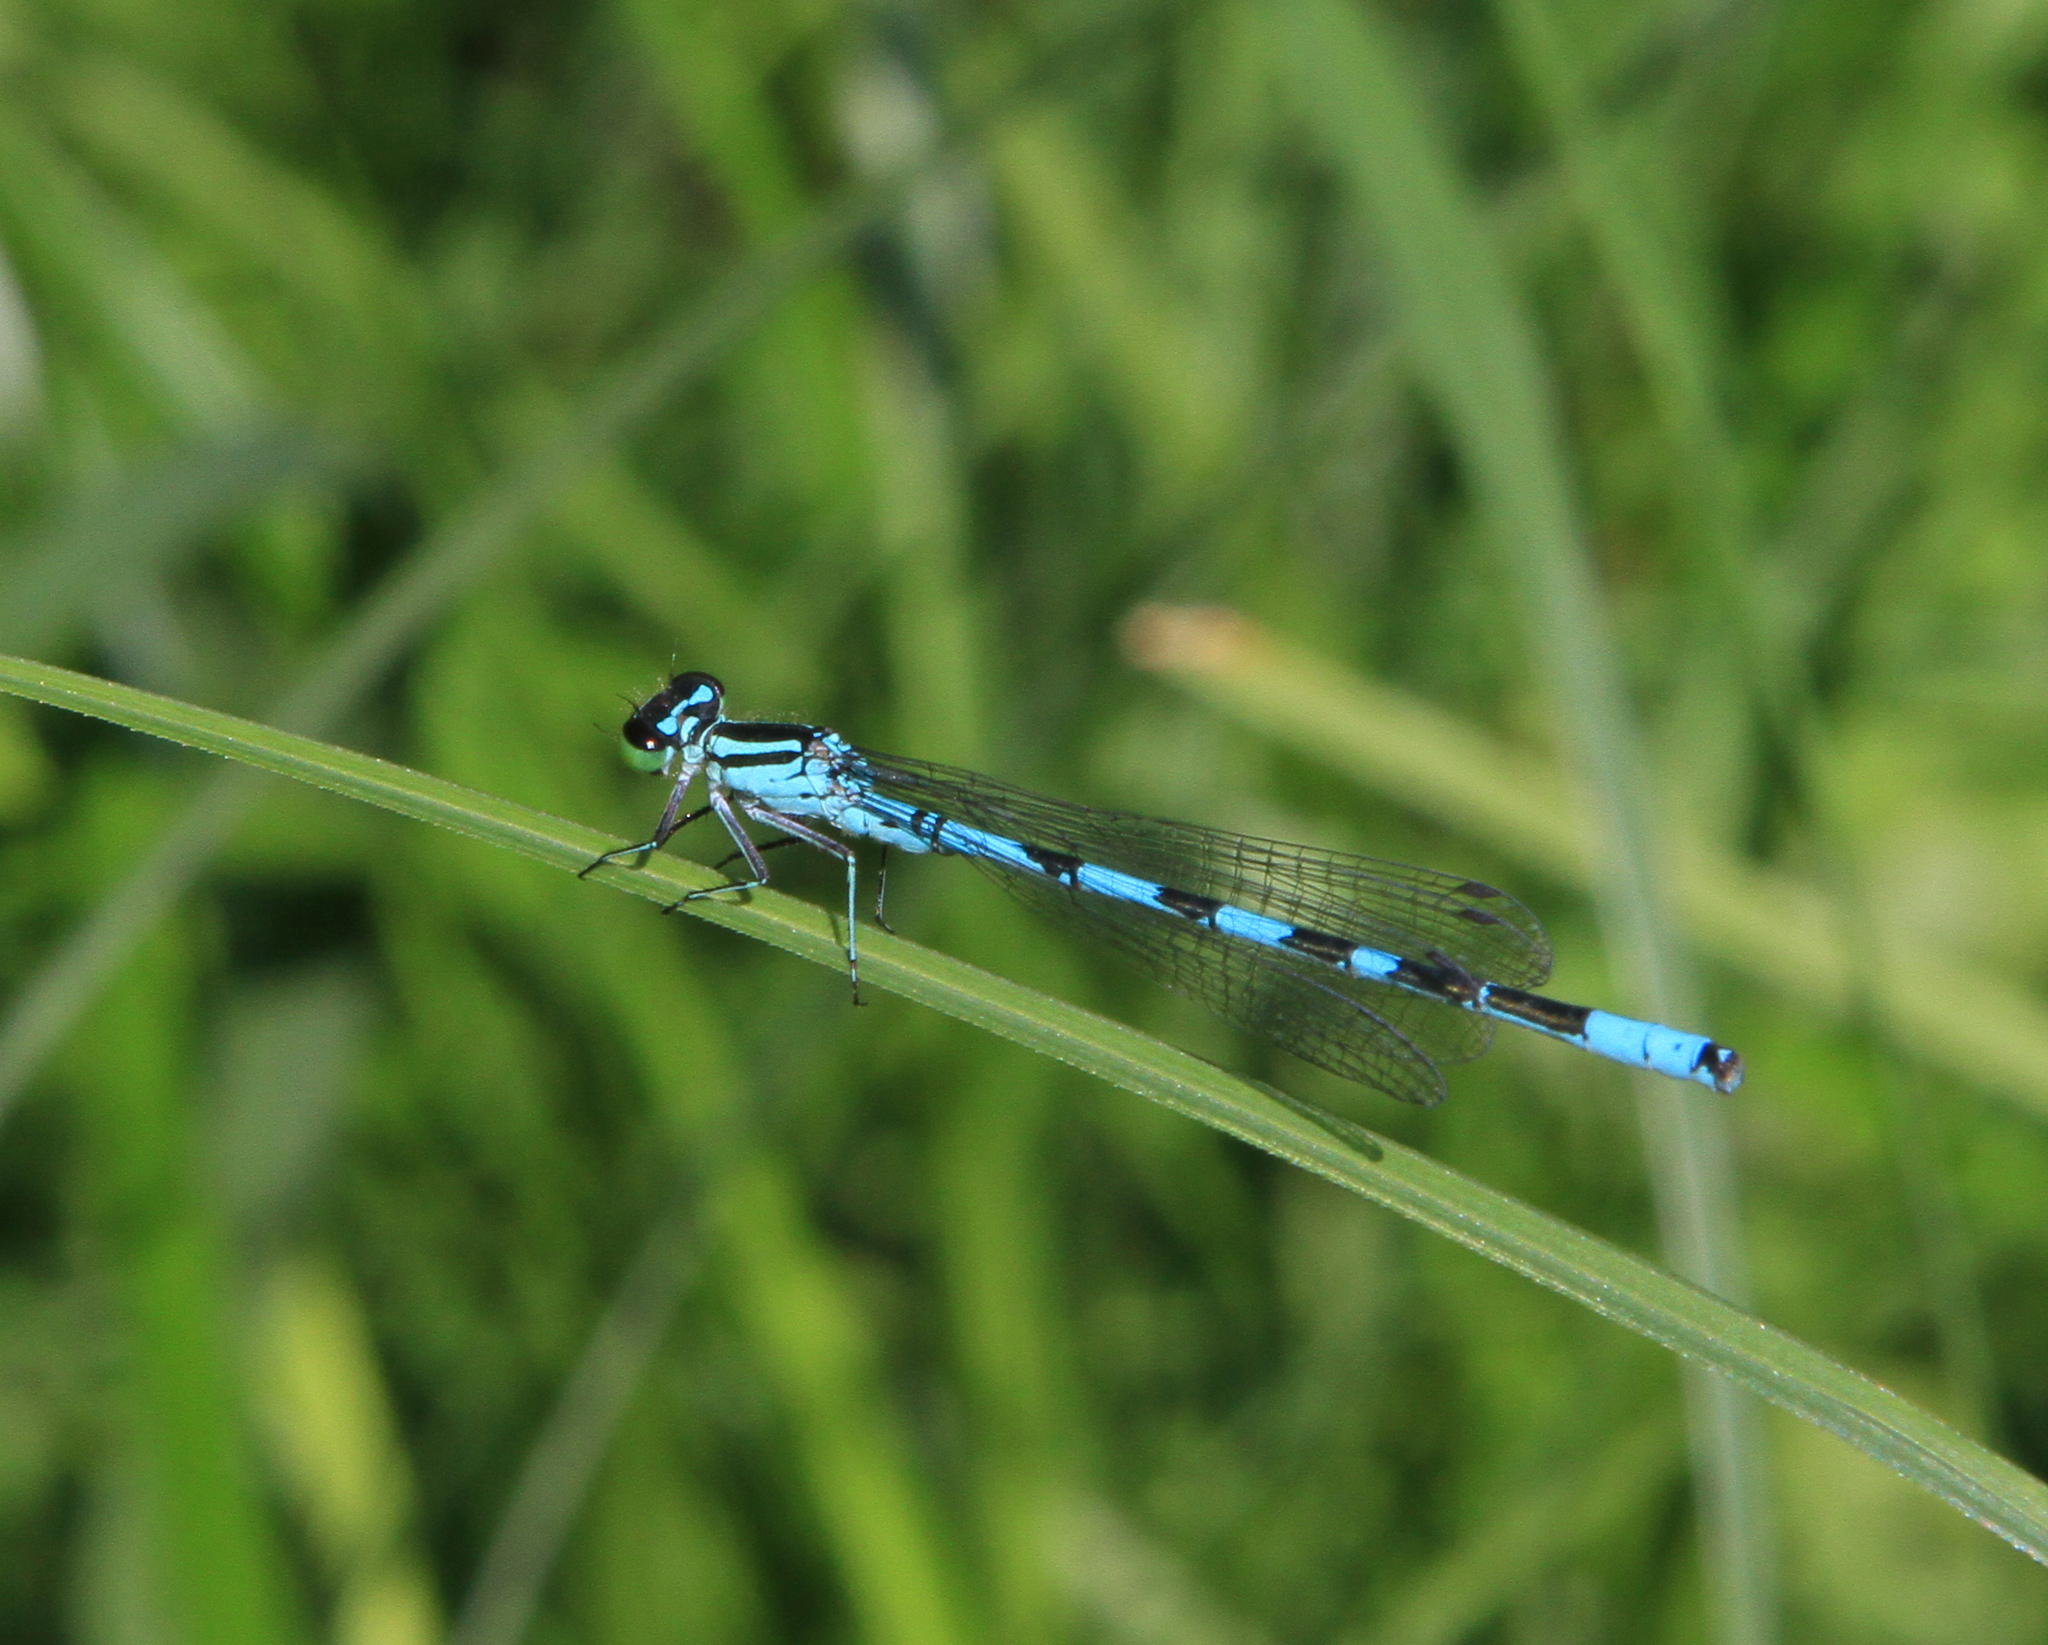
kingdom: Animalia
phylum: Arthropoda
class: Insecta
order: Odonata
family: Coenagrionidae
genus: Coenagrion
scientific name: Coenagrion hastulatum
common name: Spearhead bluet
